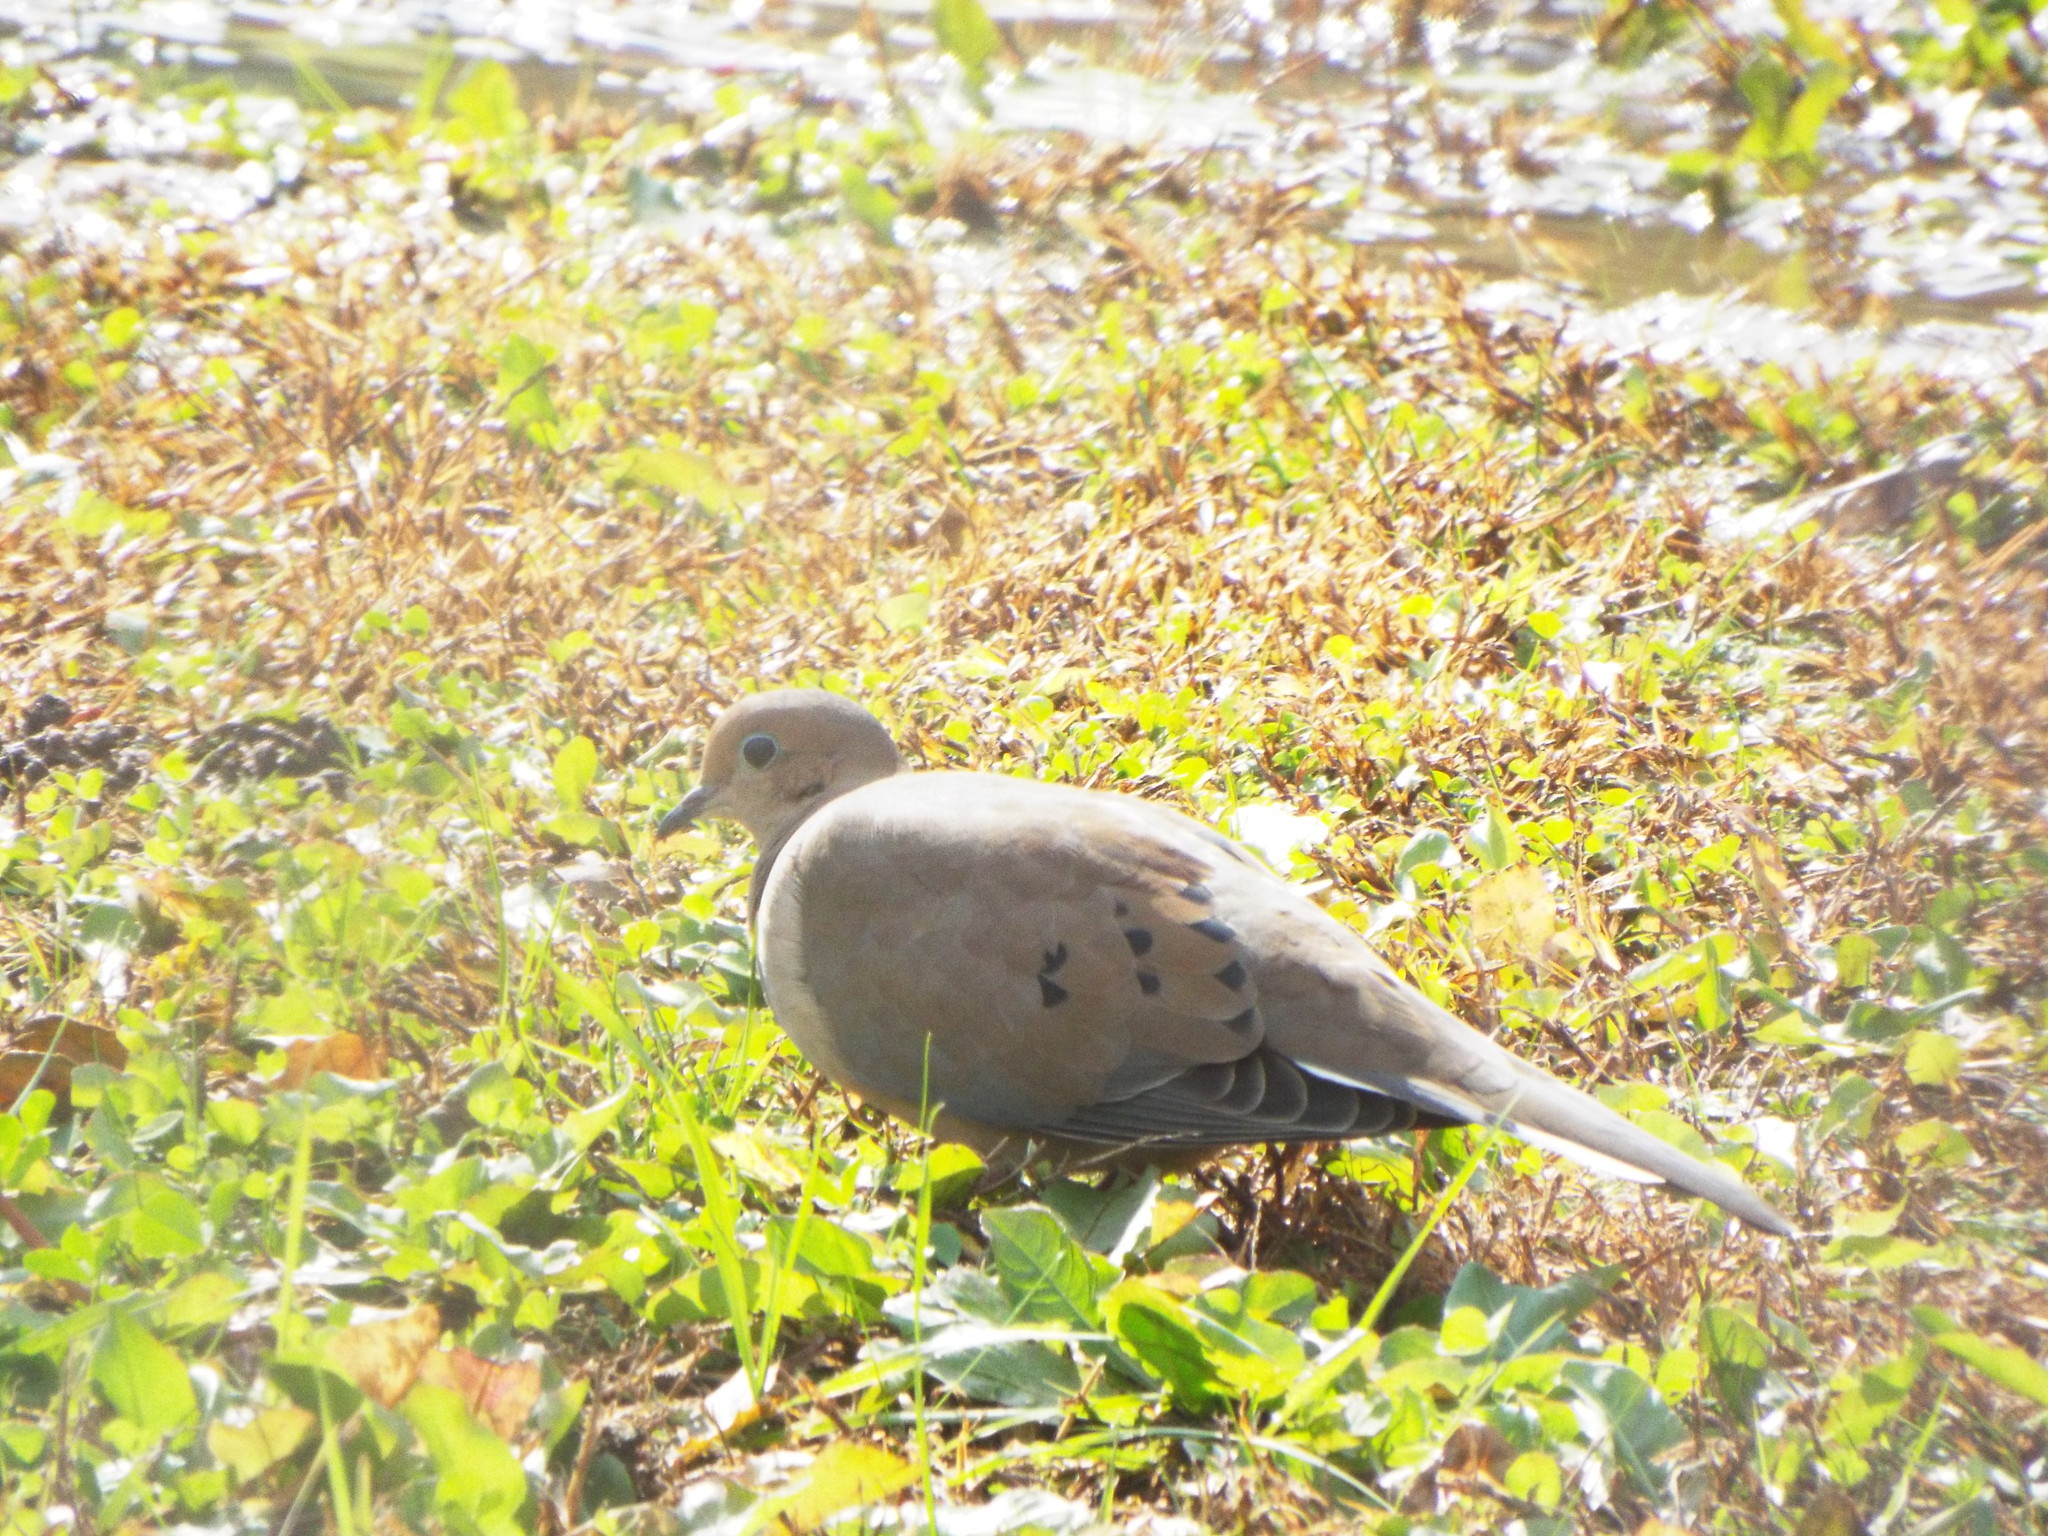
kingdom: Animalia
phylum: Chordata
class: Aves
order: Columbiformes
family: Columbidae
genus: Zenaida
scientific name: Zenaida macroura
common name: Mourning dove
